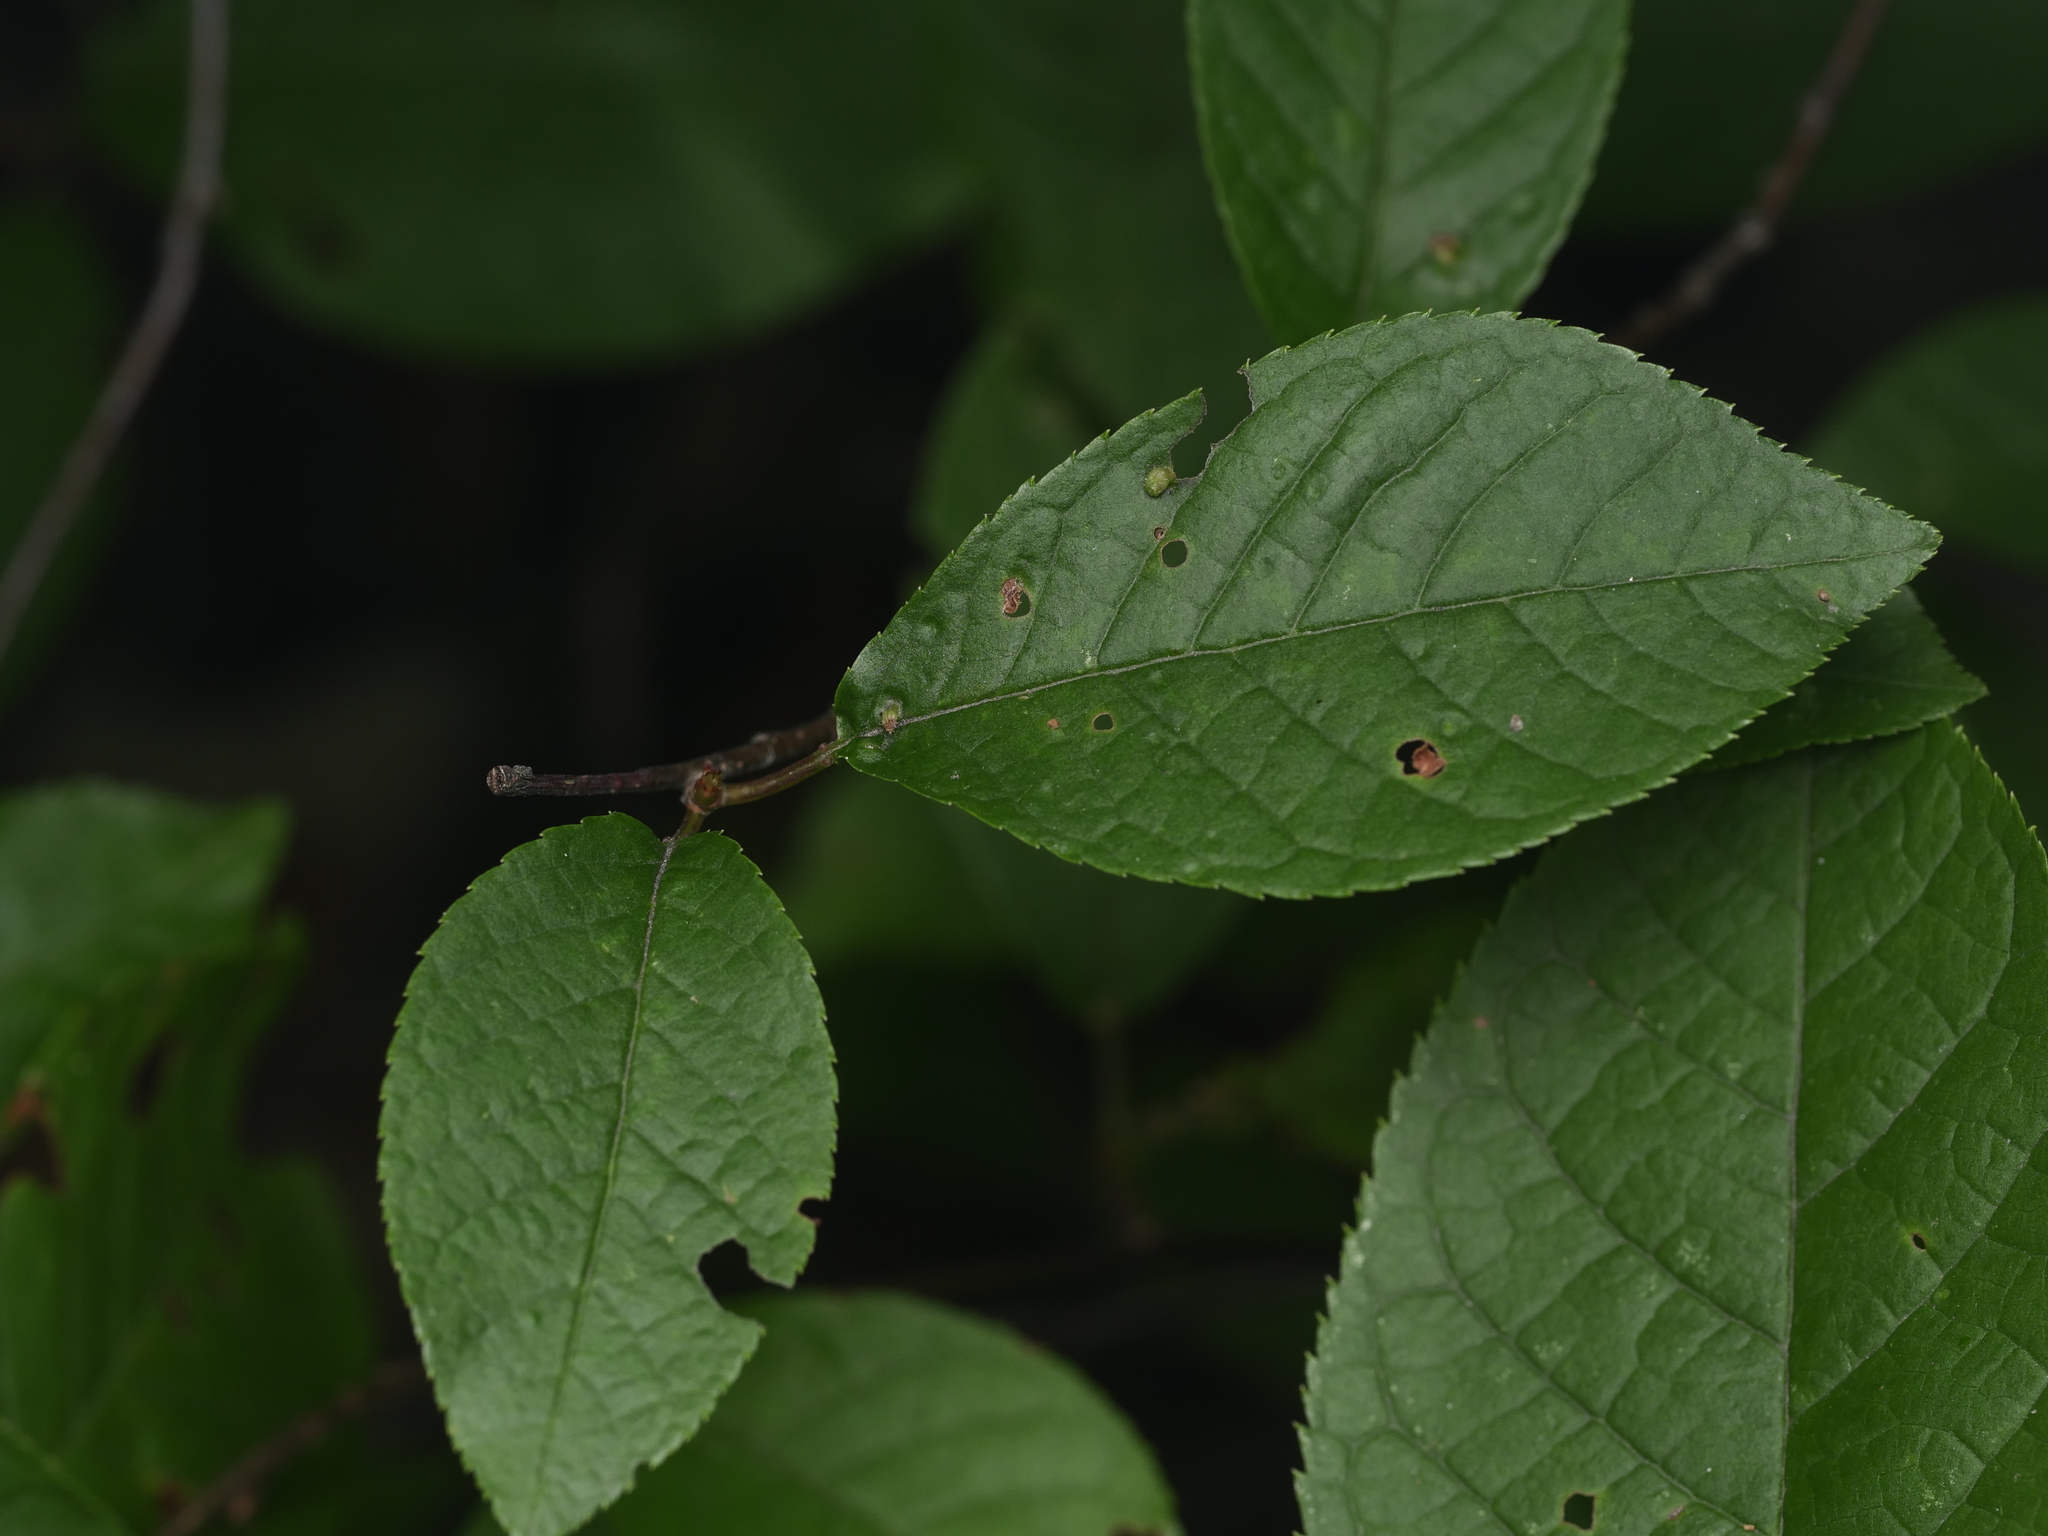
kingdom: Plantae
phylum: Tracheophyta
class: Magnoliopsida
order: Rosales
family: Rosaceae
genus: Prunus
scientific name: Prunus padus
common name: Bird cherry
